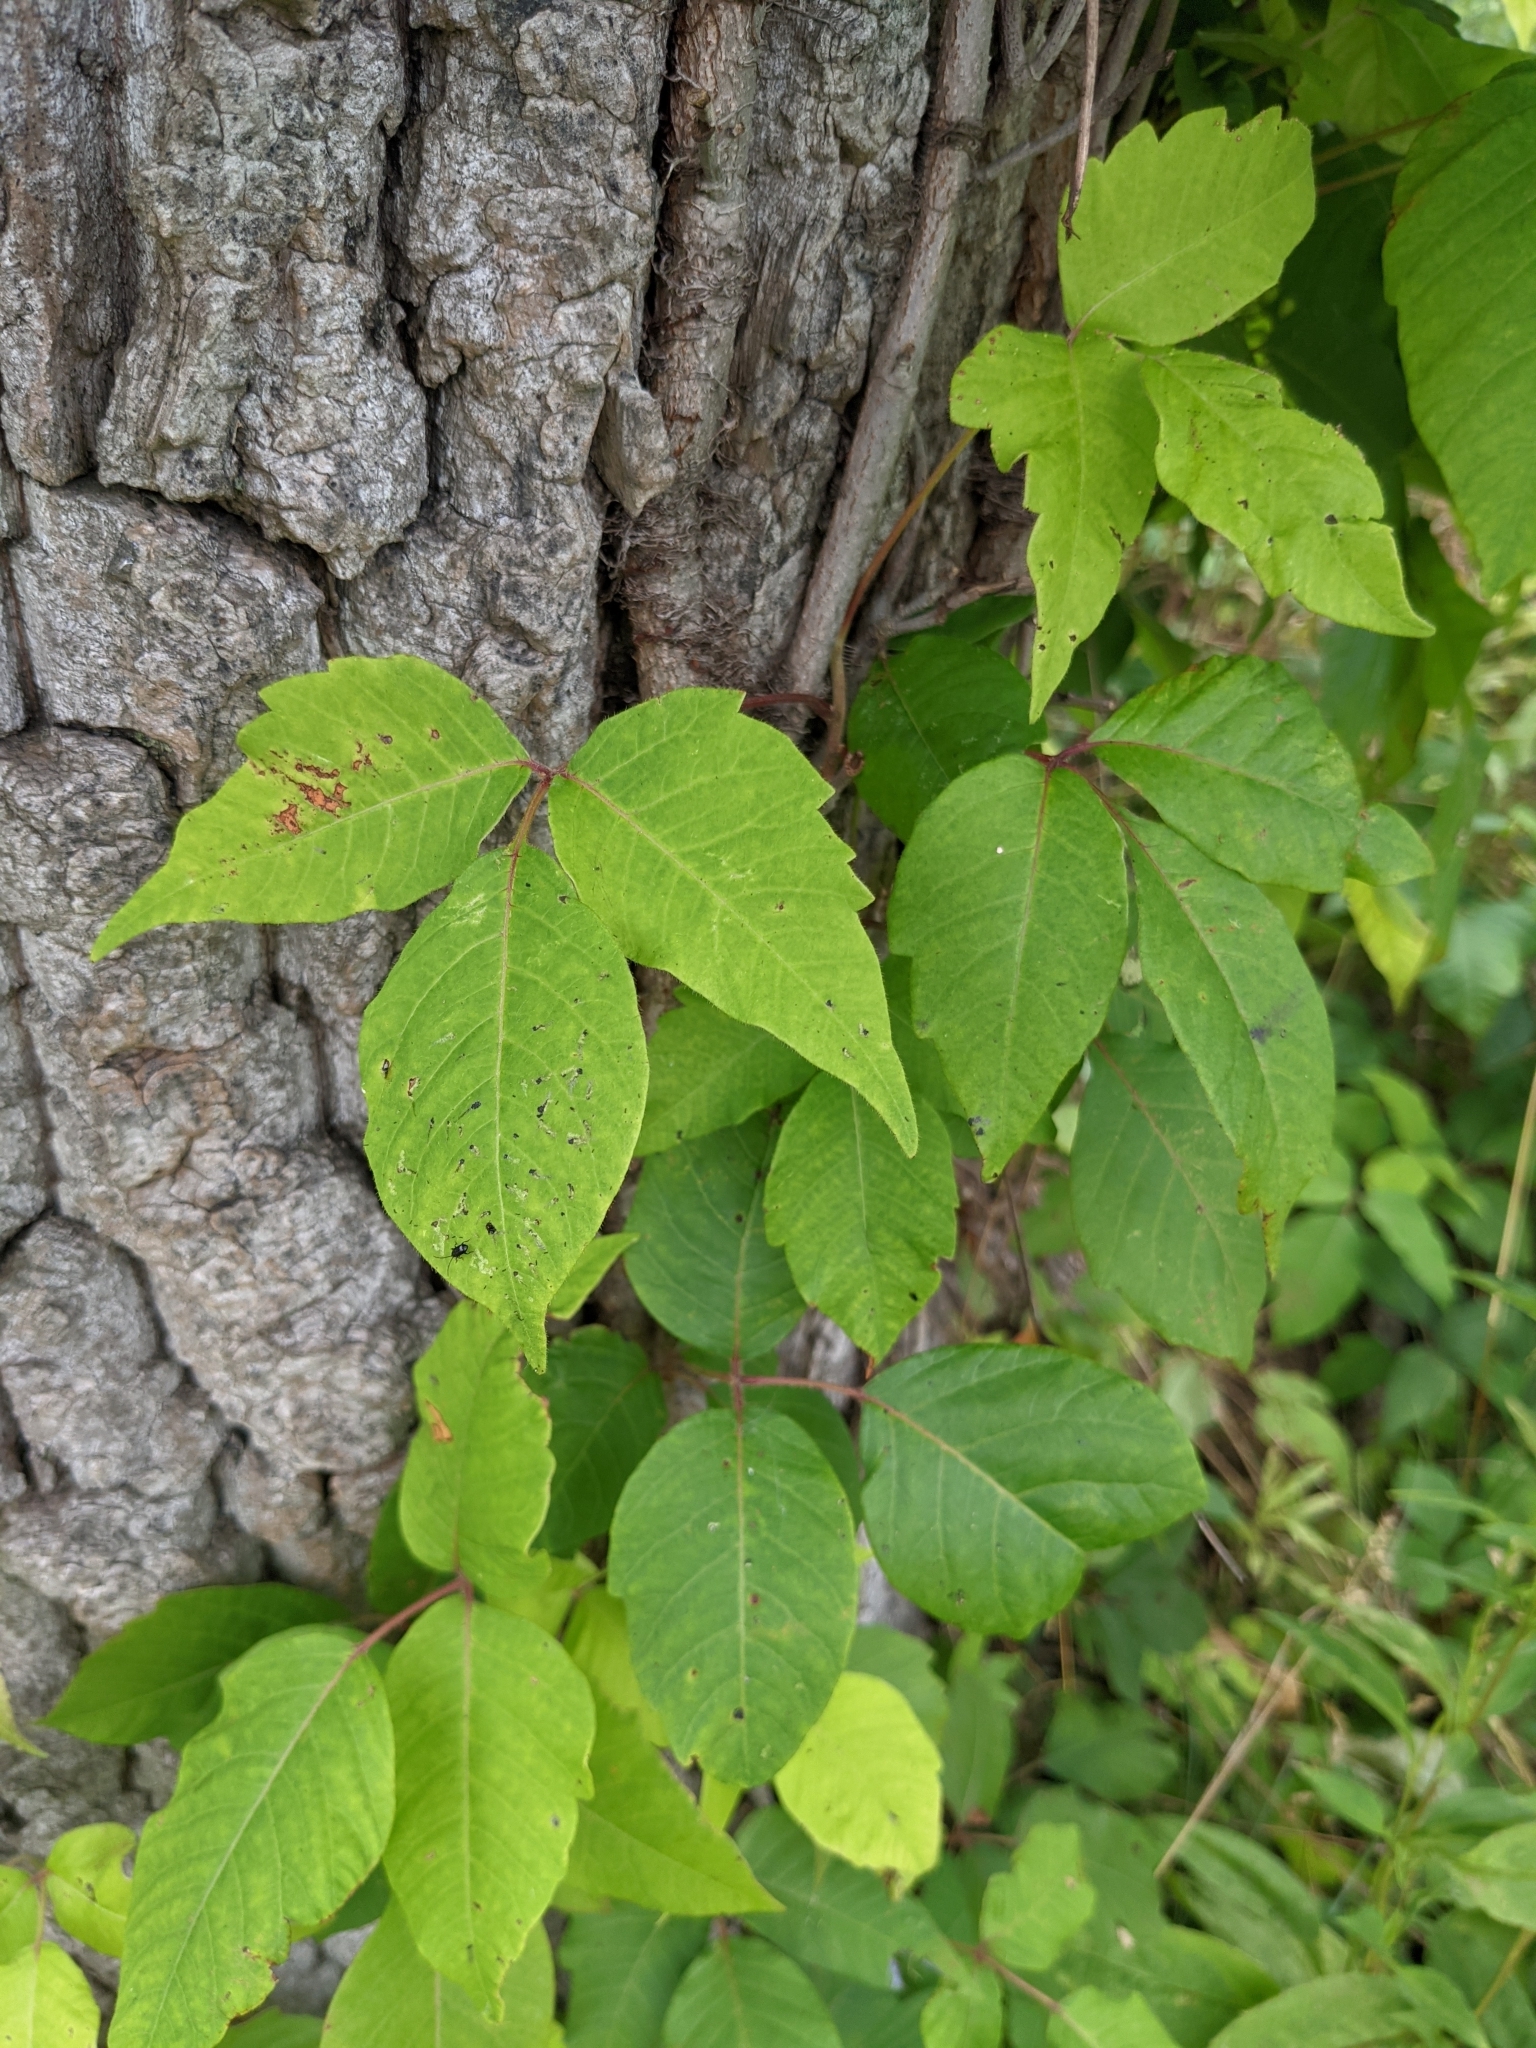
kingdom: Plantae
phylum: Tracheophyta
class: Magnoliopsida
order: Sapindales
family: Anacardiaceae
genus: Toxicodendron
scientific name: Toxicodendron radicans
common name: Poison ivy
